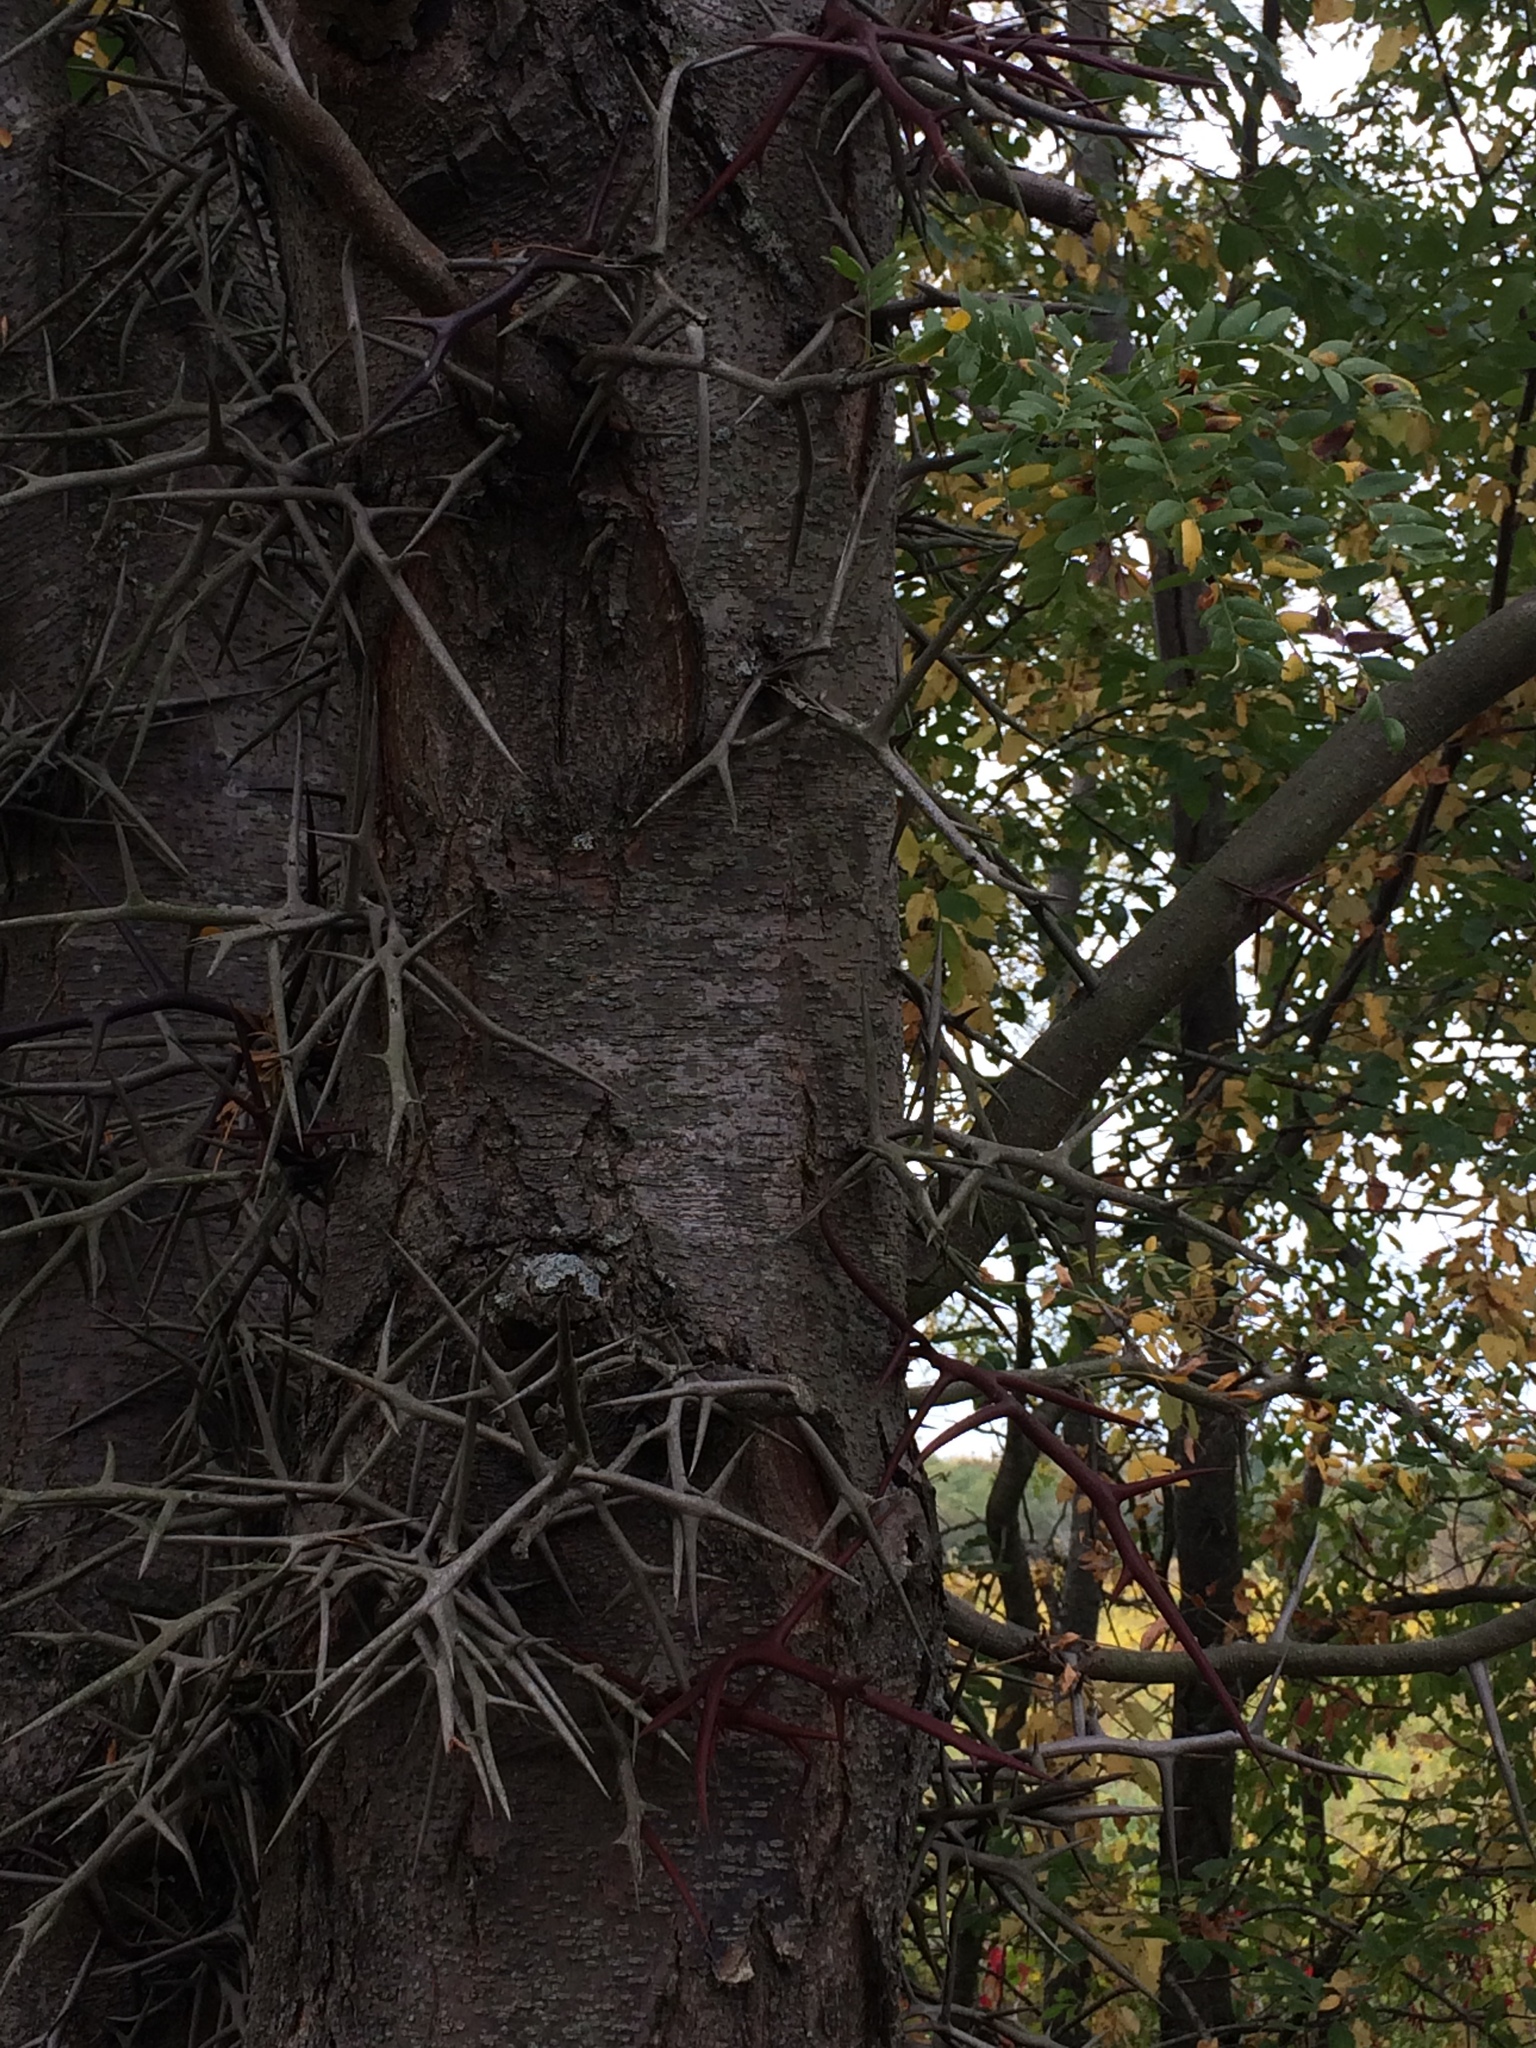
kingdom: Plantae
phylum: Tracheophyta
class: Magnoliopsida
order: Fabales
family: Fabaceae
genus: Gleditsia
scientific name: Gleditsia triacanthos
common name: Common honeylocust
